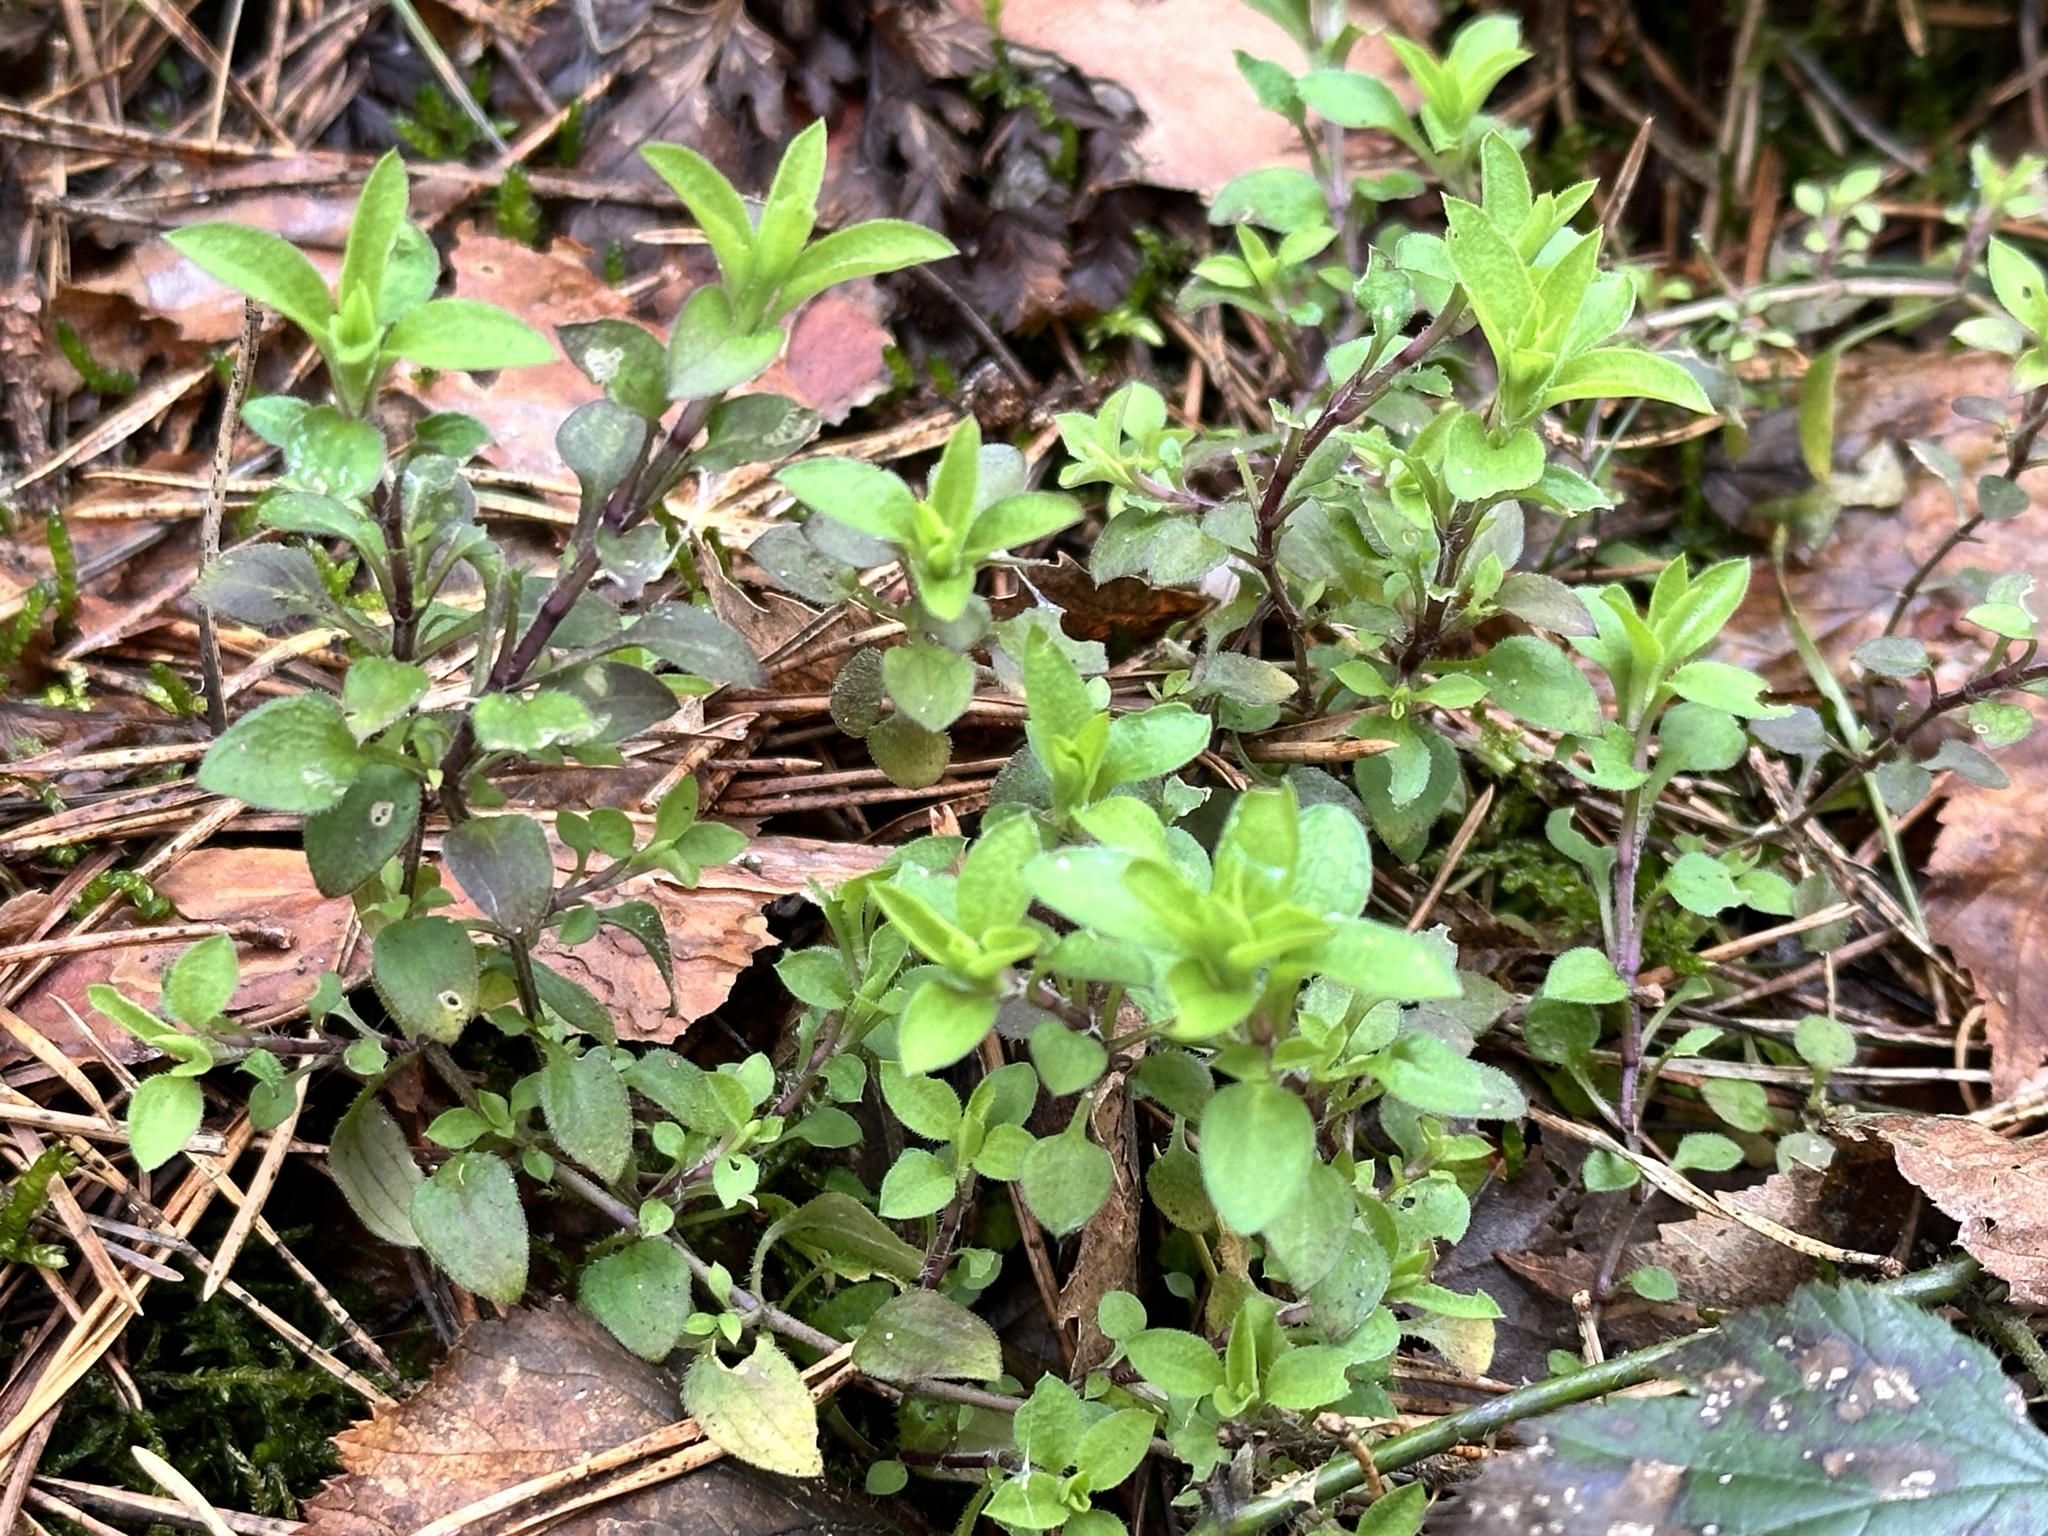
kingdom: Plantae
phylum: Tracheophyta
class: Magnoliopsida
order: Caryophyllales
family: Caryophyllaceae
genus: Moehringia
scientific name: Moehringia trinervia
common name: Three-nerved sandwort
